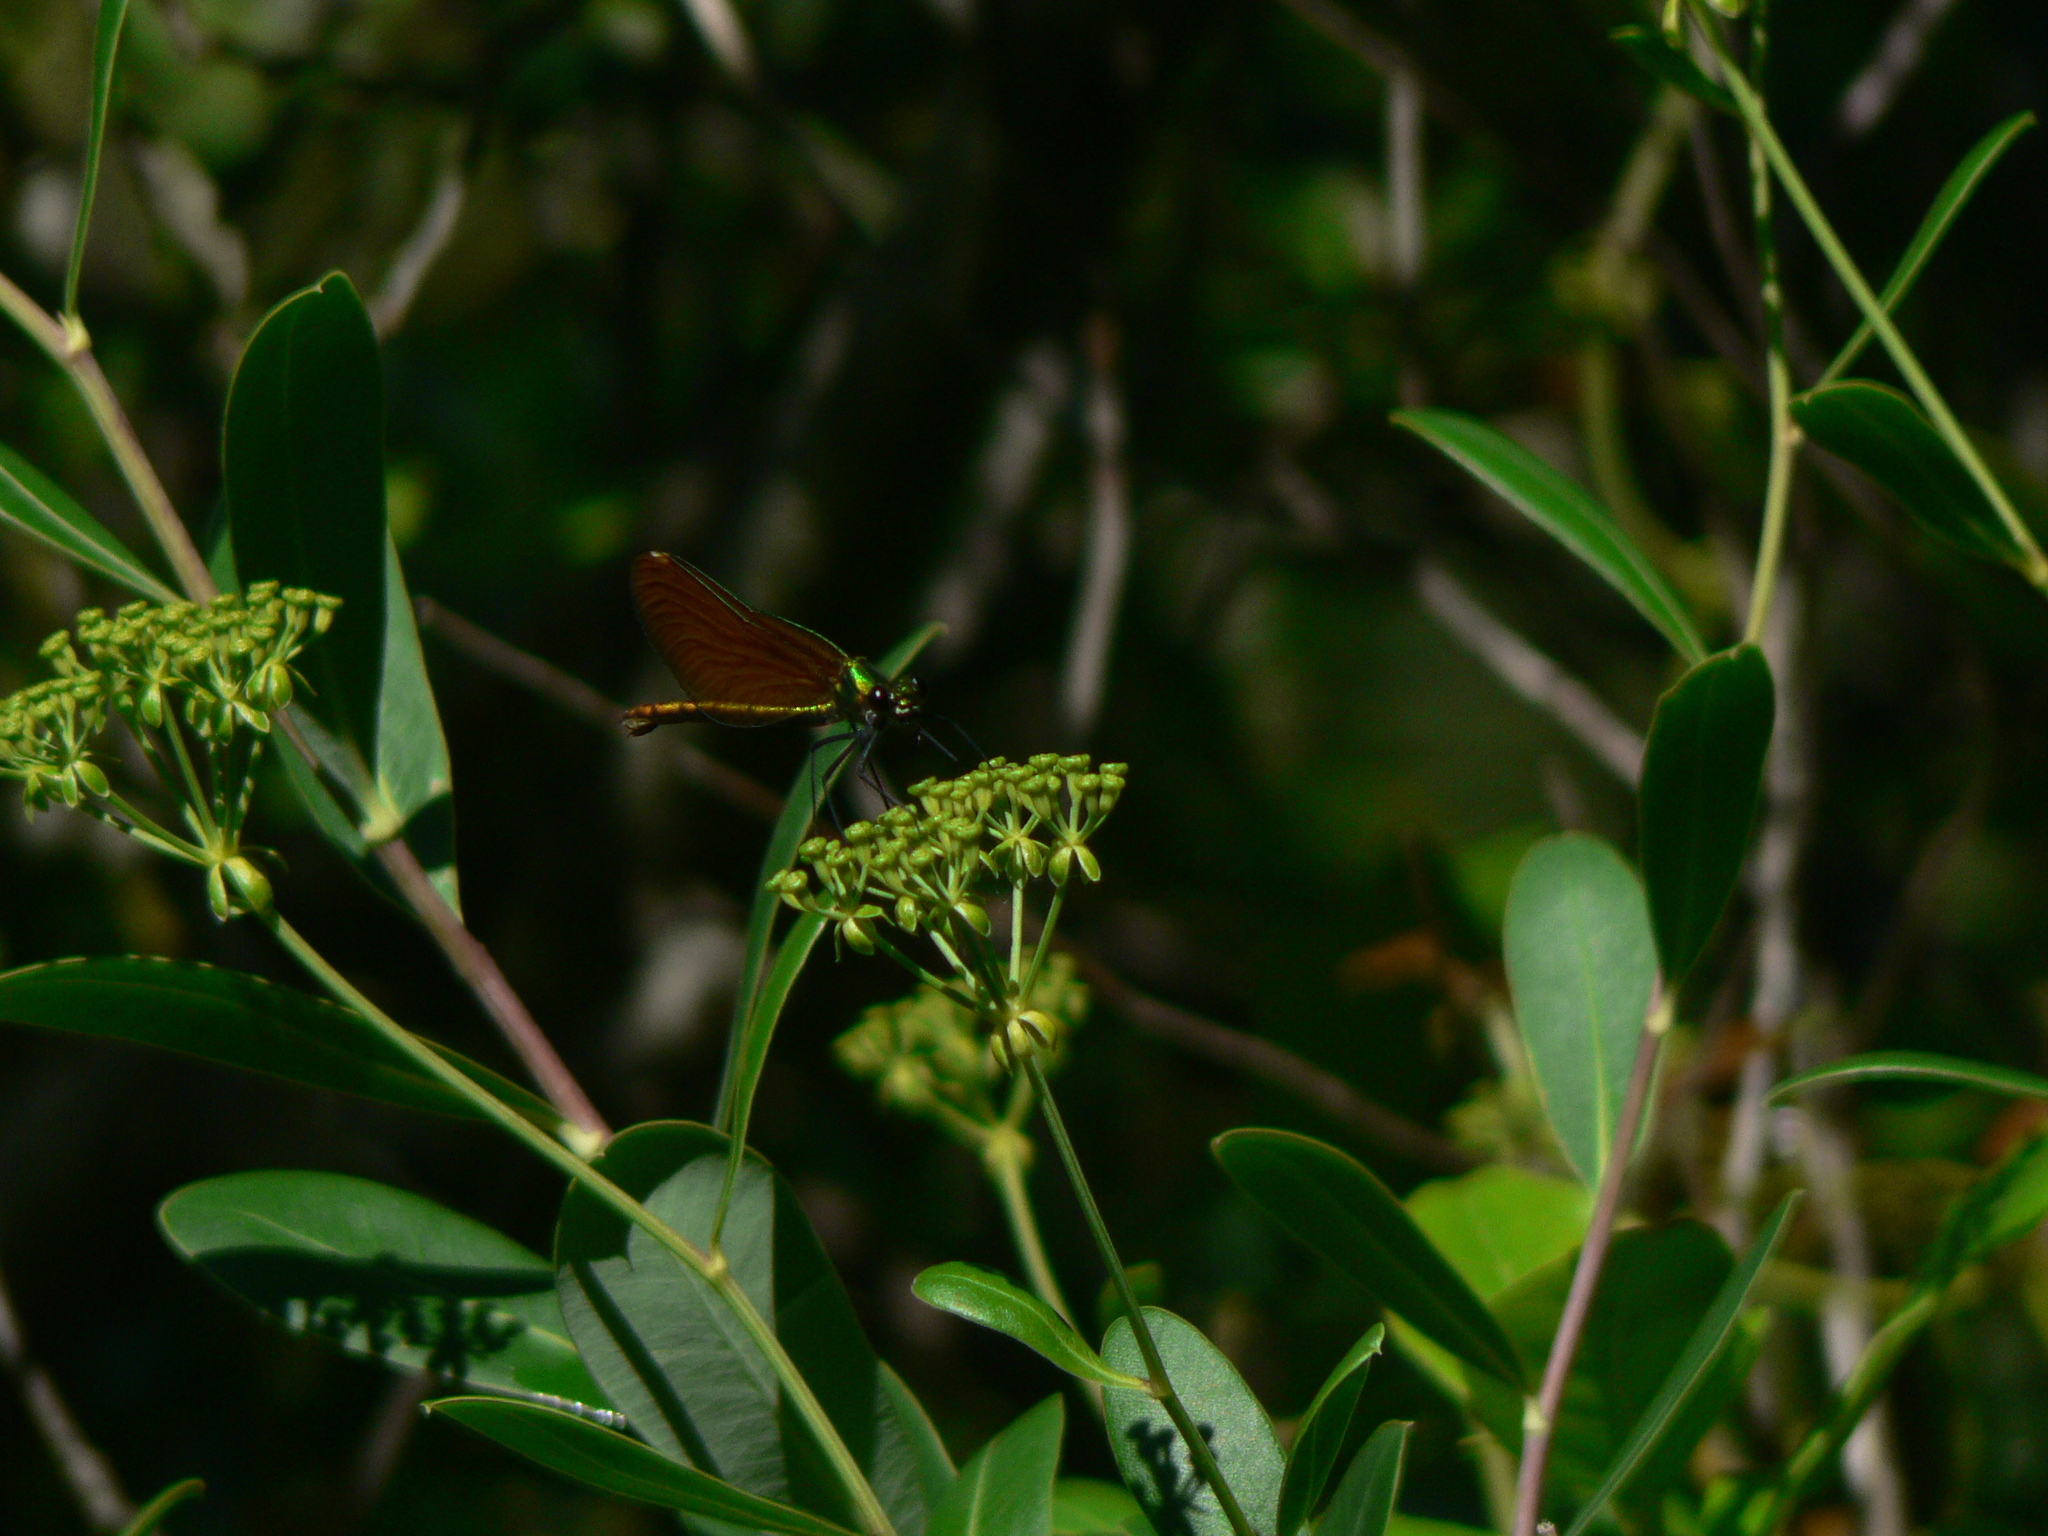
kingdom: Animalia
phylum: Arthropoda
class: Insecta
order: Odonata
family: Calopterygidae
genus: Calopteryx
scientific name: Calopteryx virgo
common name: Beautiful demoiselle
